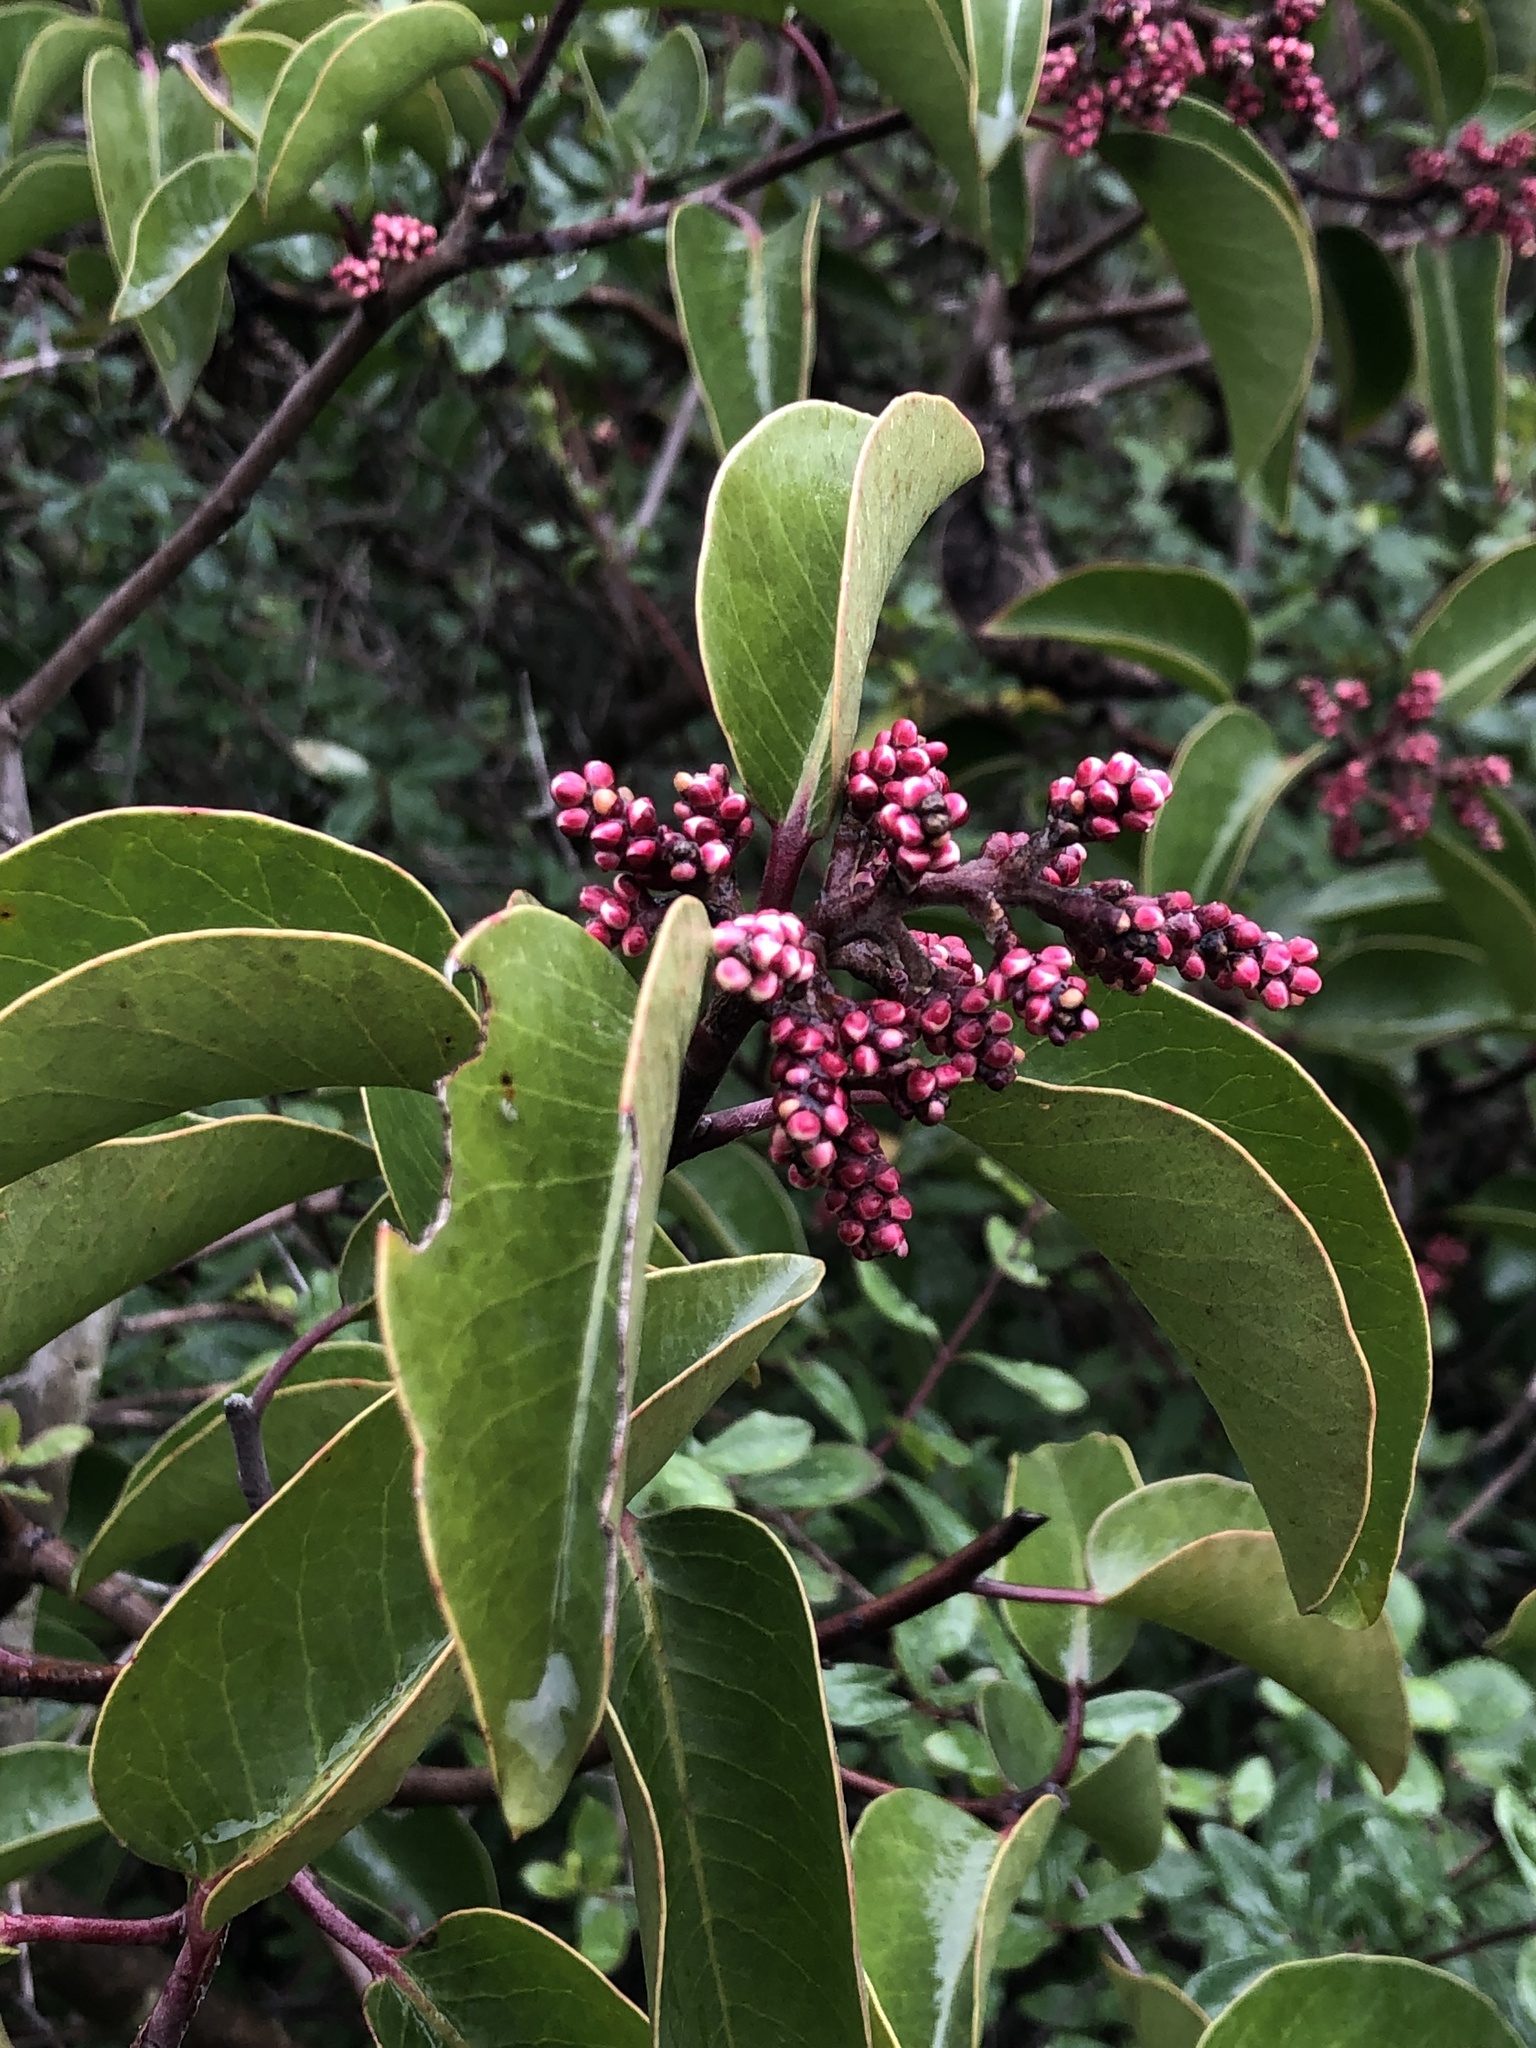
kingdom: Plantae
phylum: Tracheophyta
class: Magnoliopsida
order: Sapindales
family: Anacardiaceae
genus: Rhus
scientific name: Rhus ovata
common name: Sugar sumac
